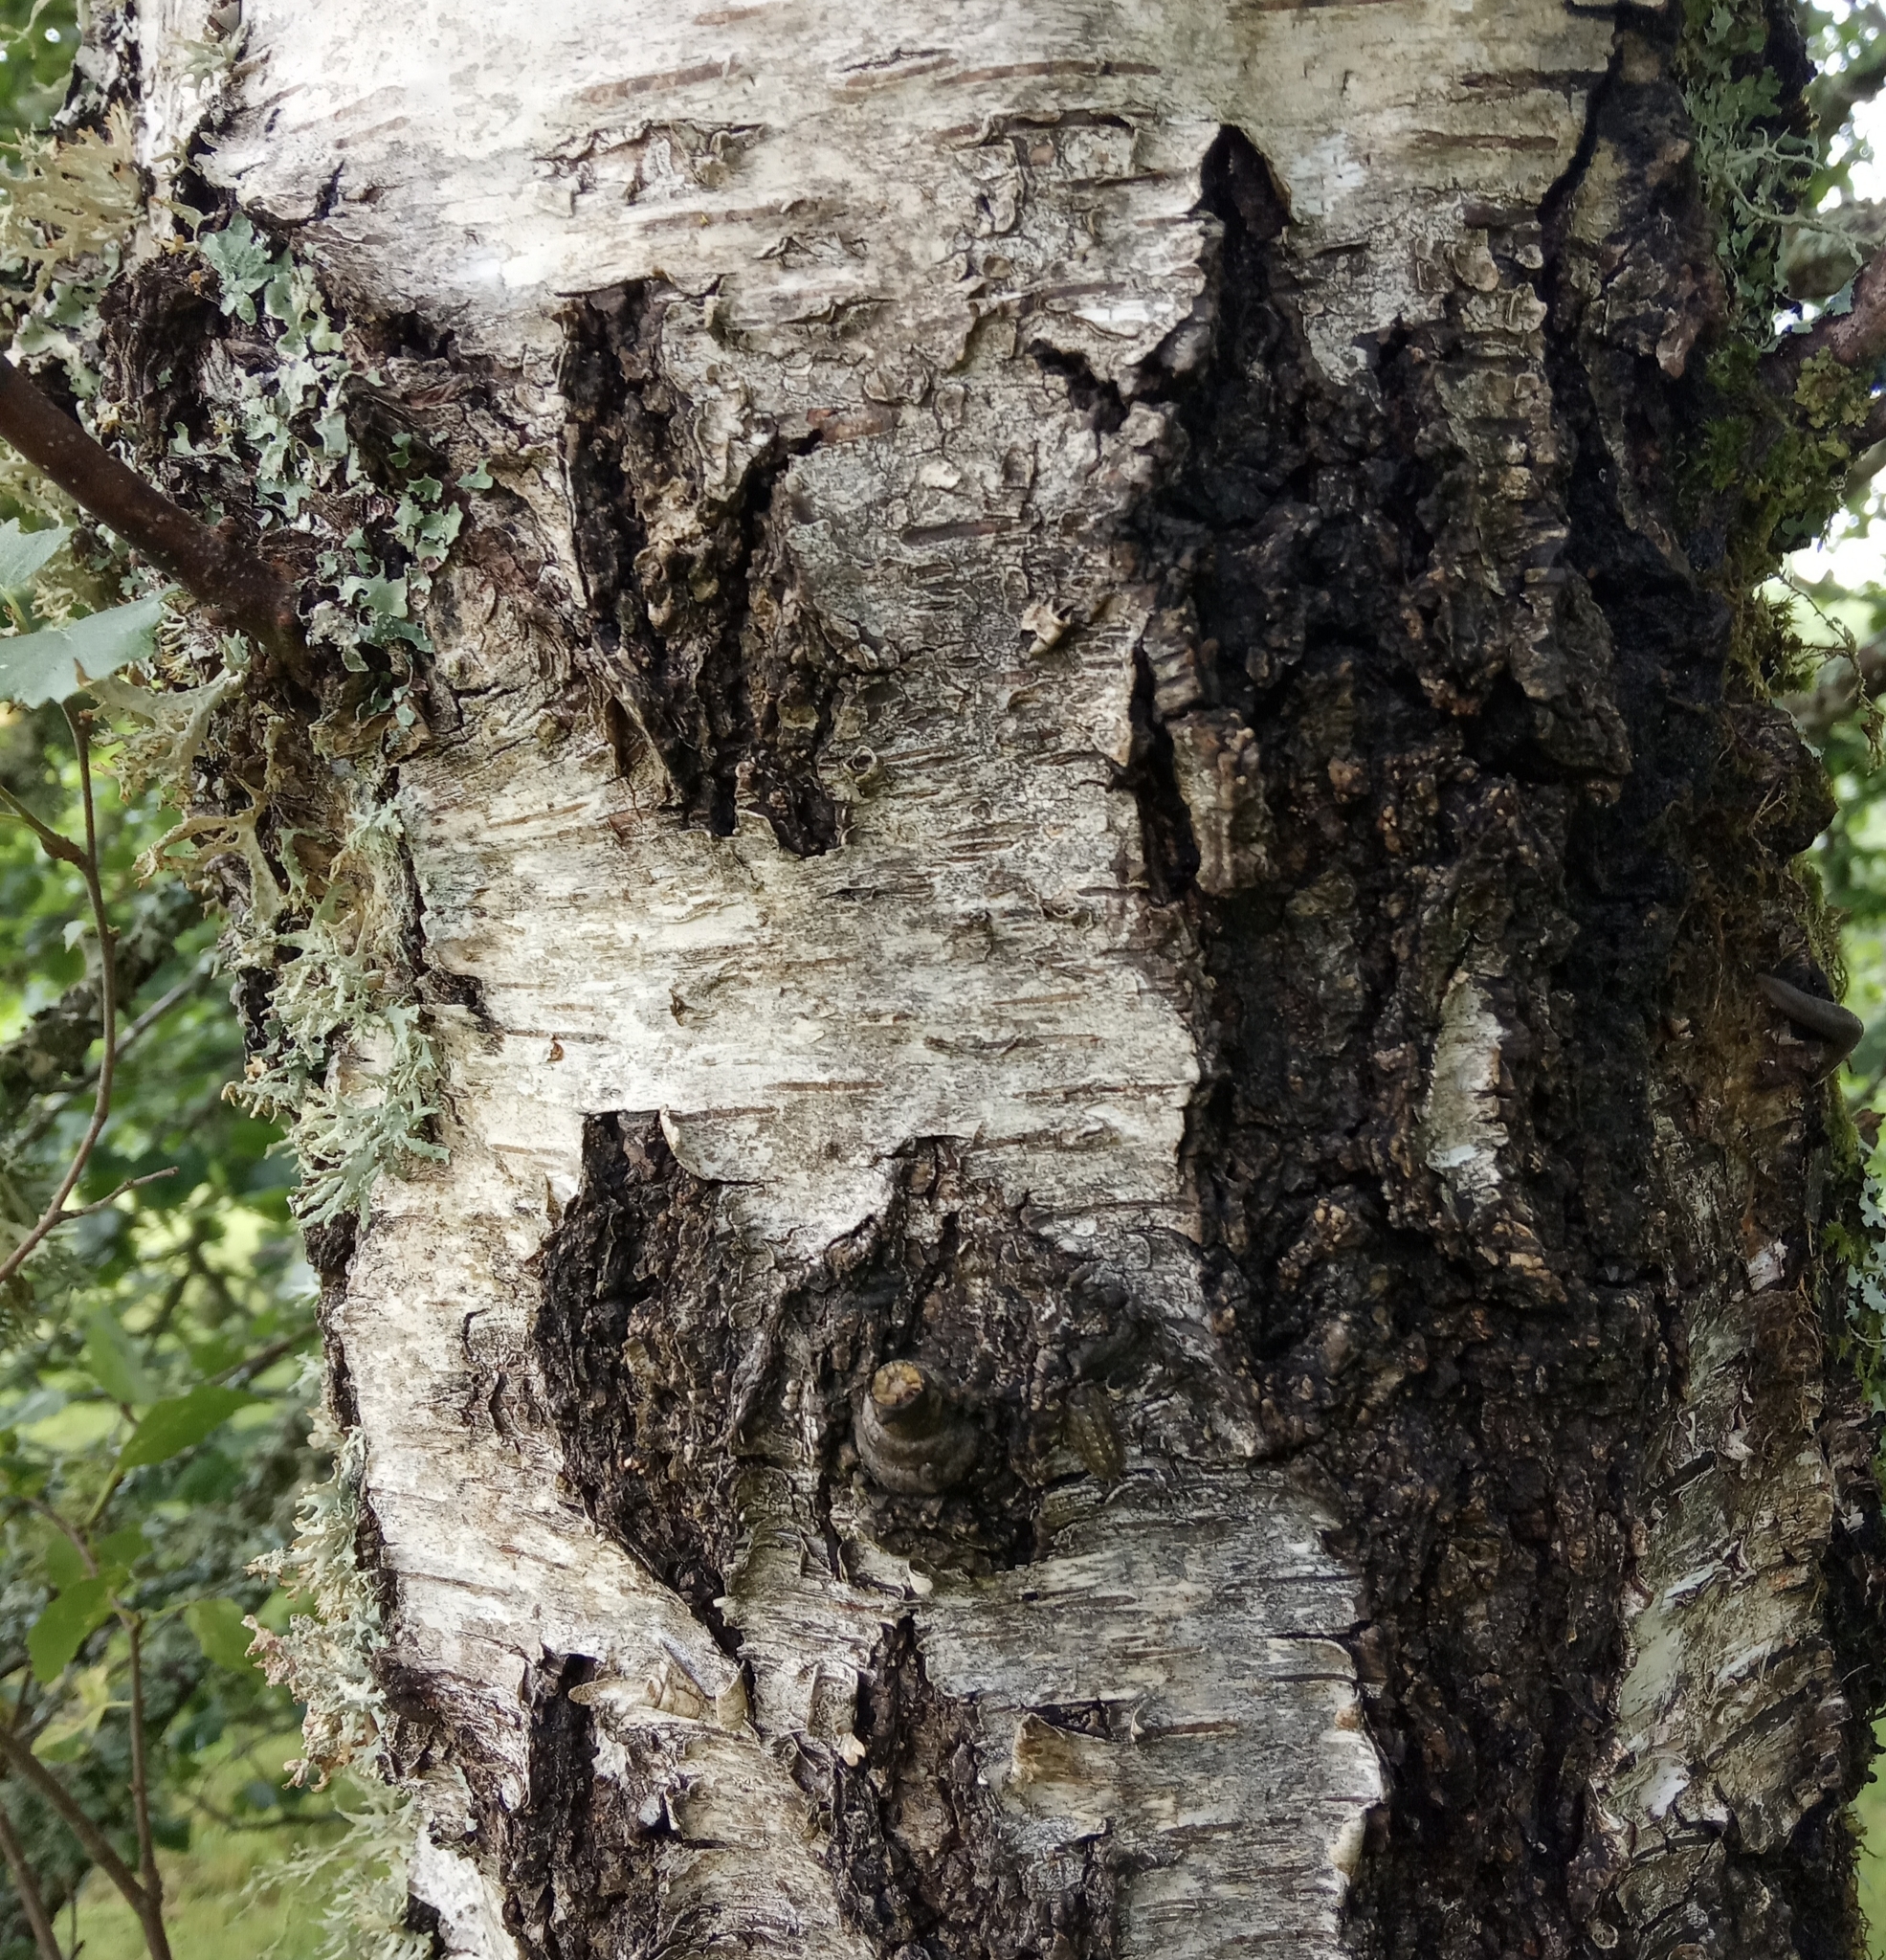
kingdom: Plantae
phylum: Tracheophyta
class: Magnoliopsida
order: Fagales
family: Betulaceae
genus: Betula
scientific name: Betula pendula
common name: Silver birch
